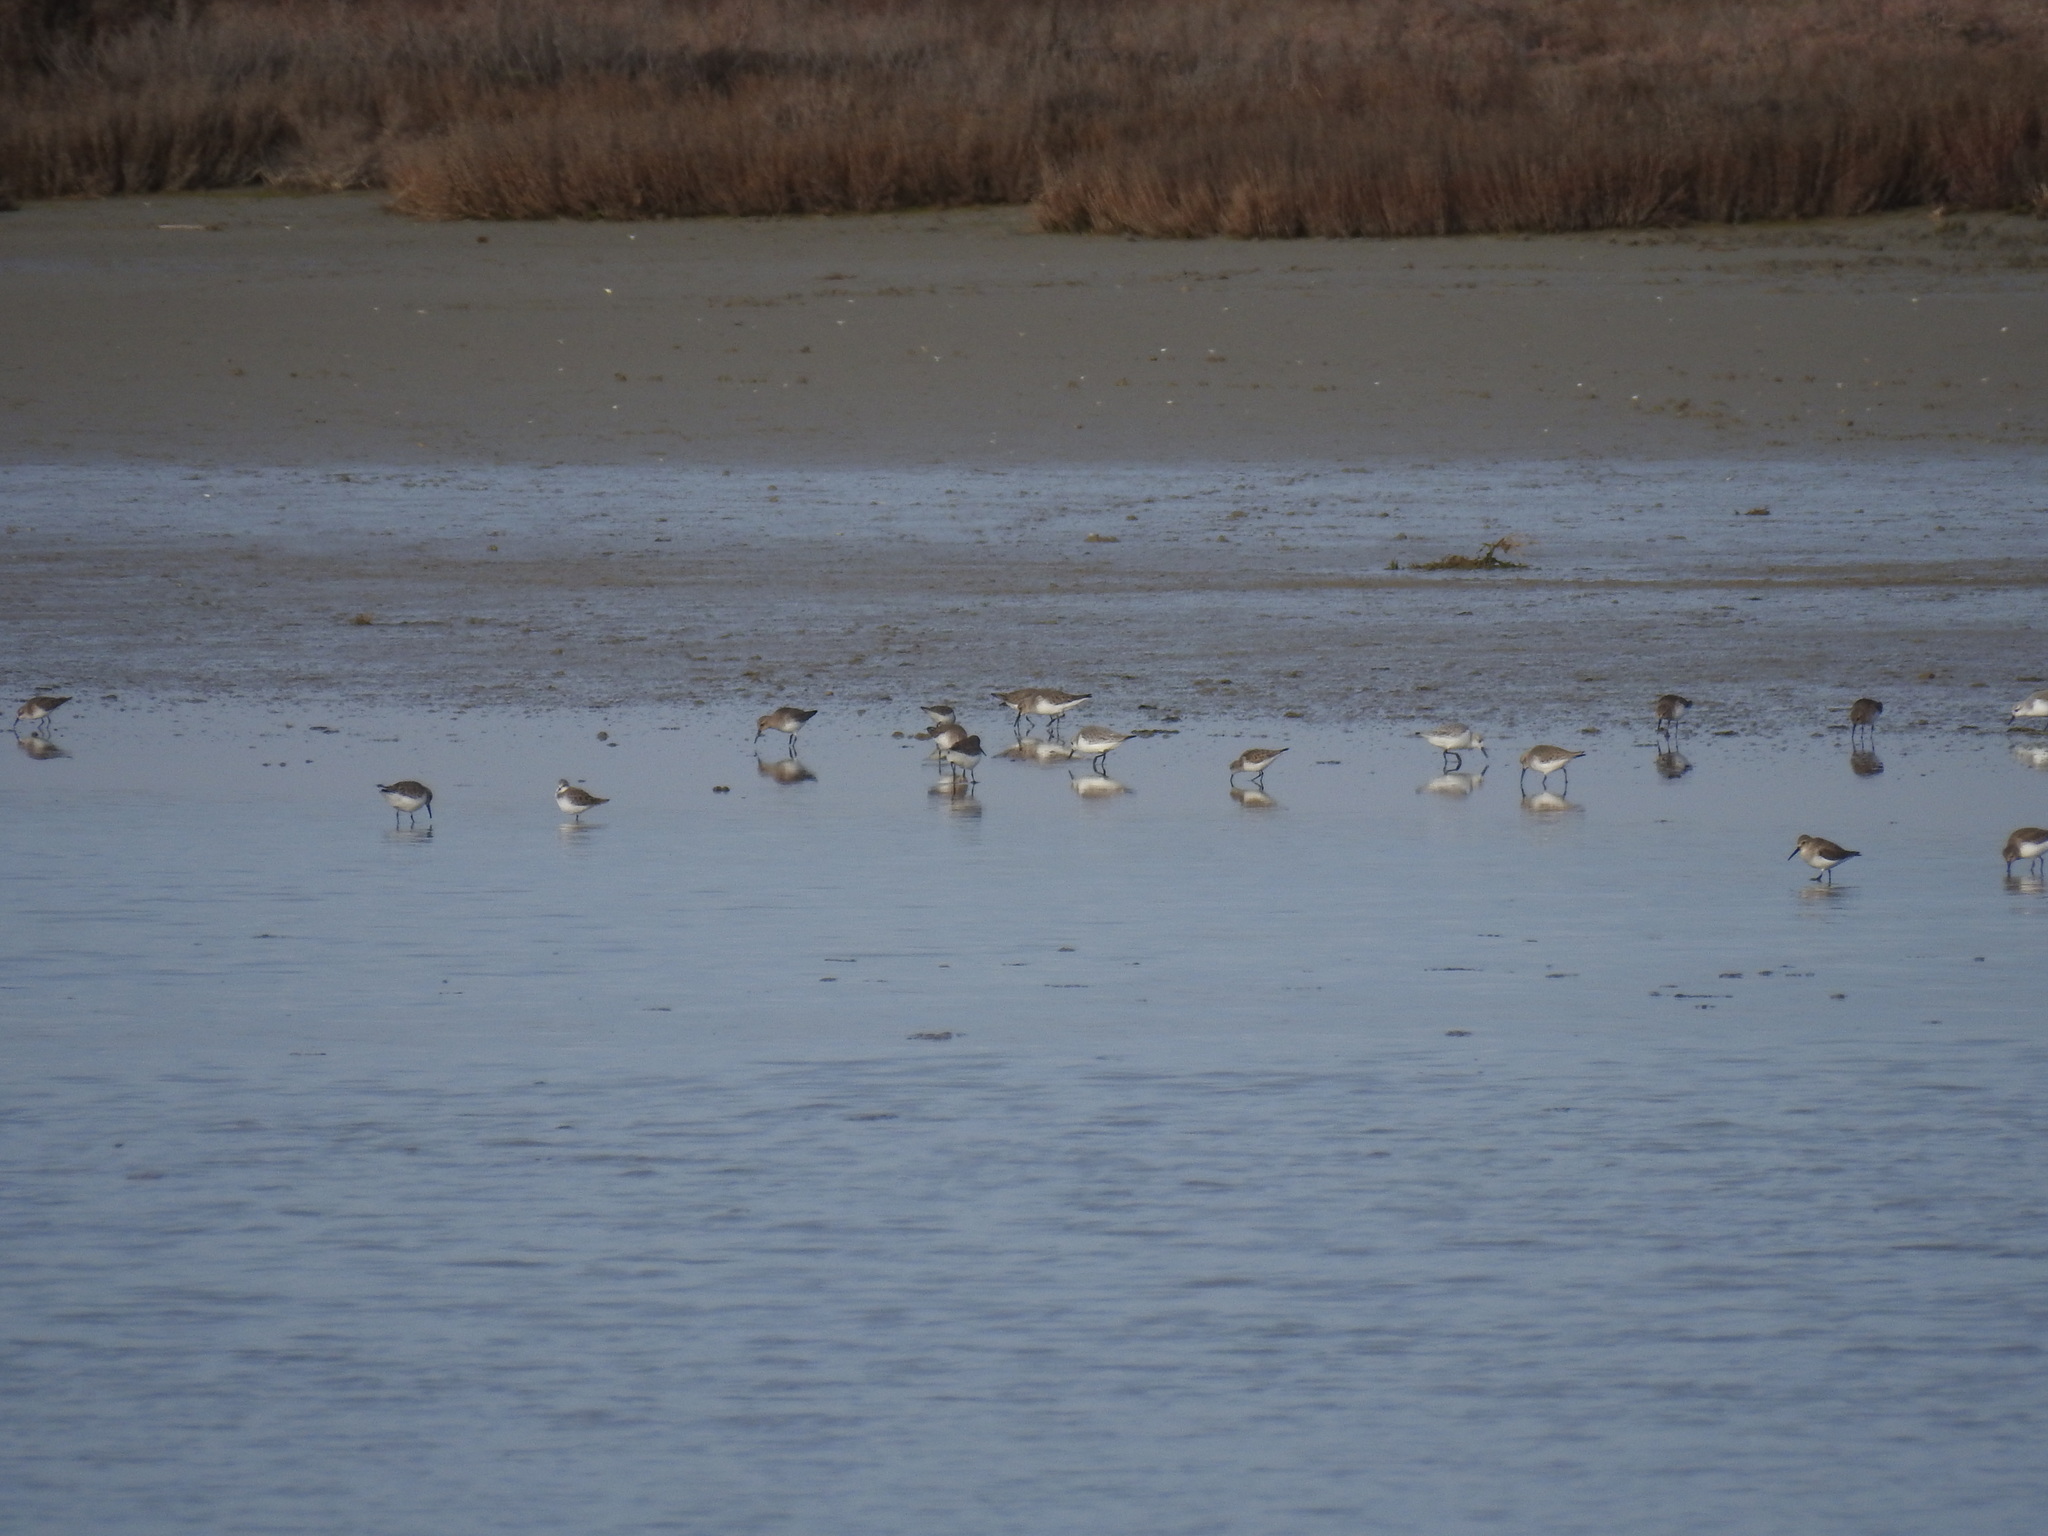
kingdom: Animalia
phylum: Chordata
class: Aves
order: Charadriiformes
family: Scolopacidae
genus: Calidris
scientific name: Calidris minuta
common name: Little stint
